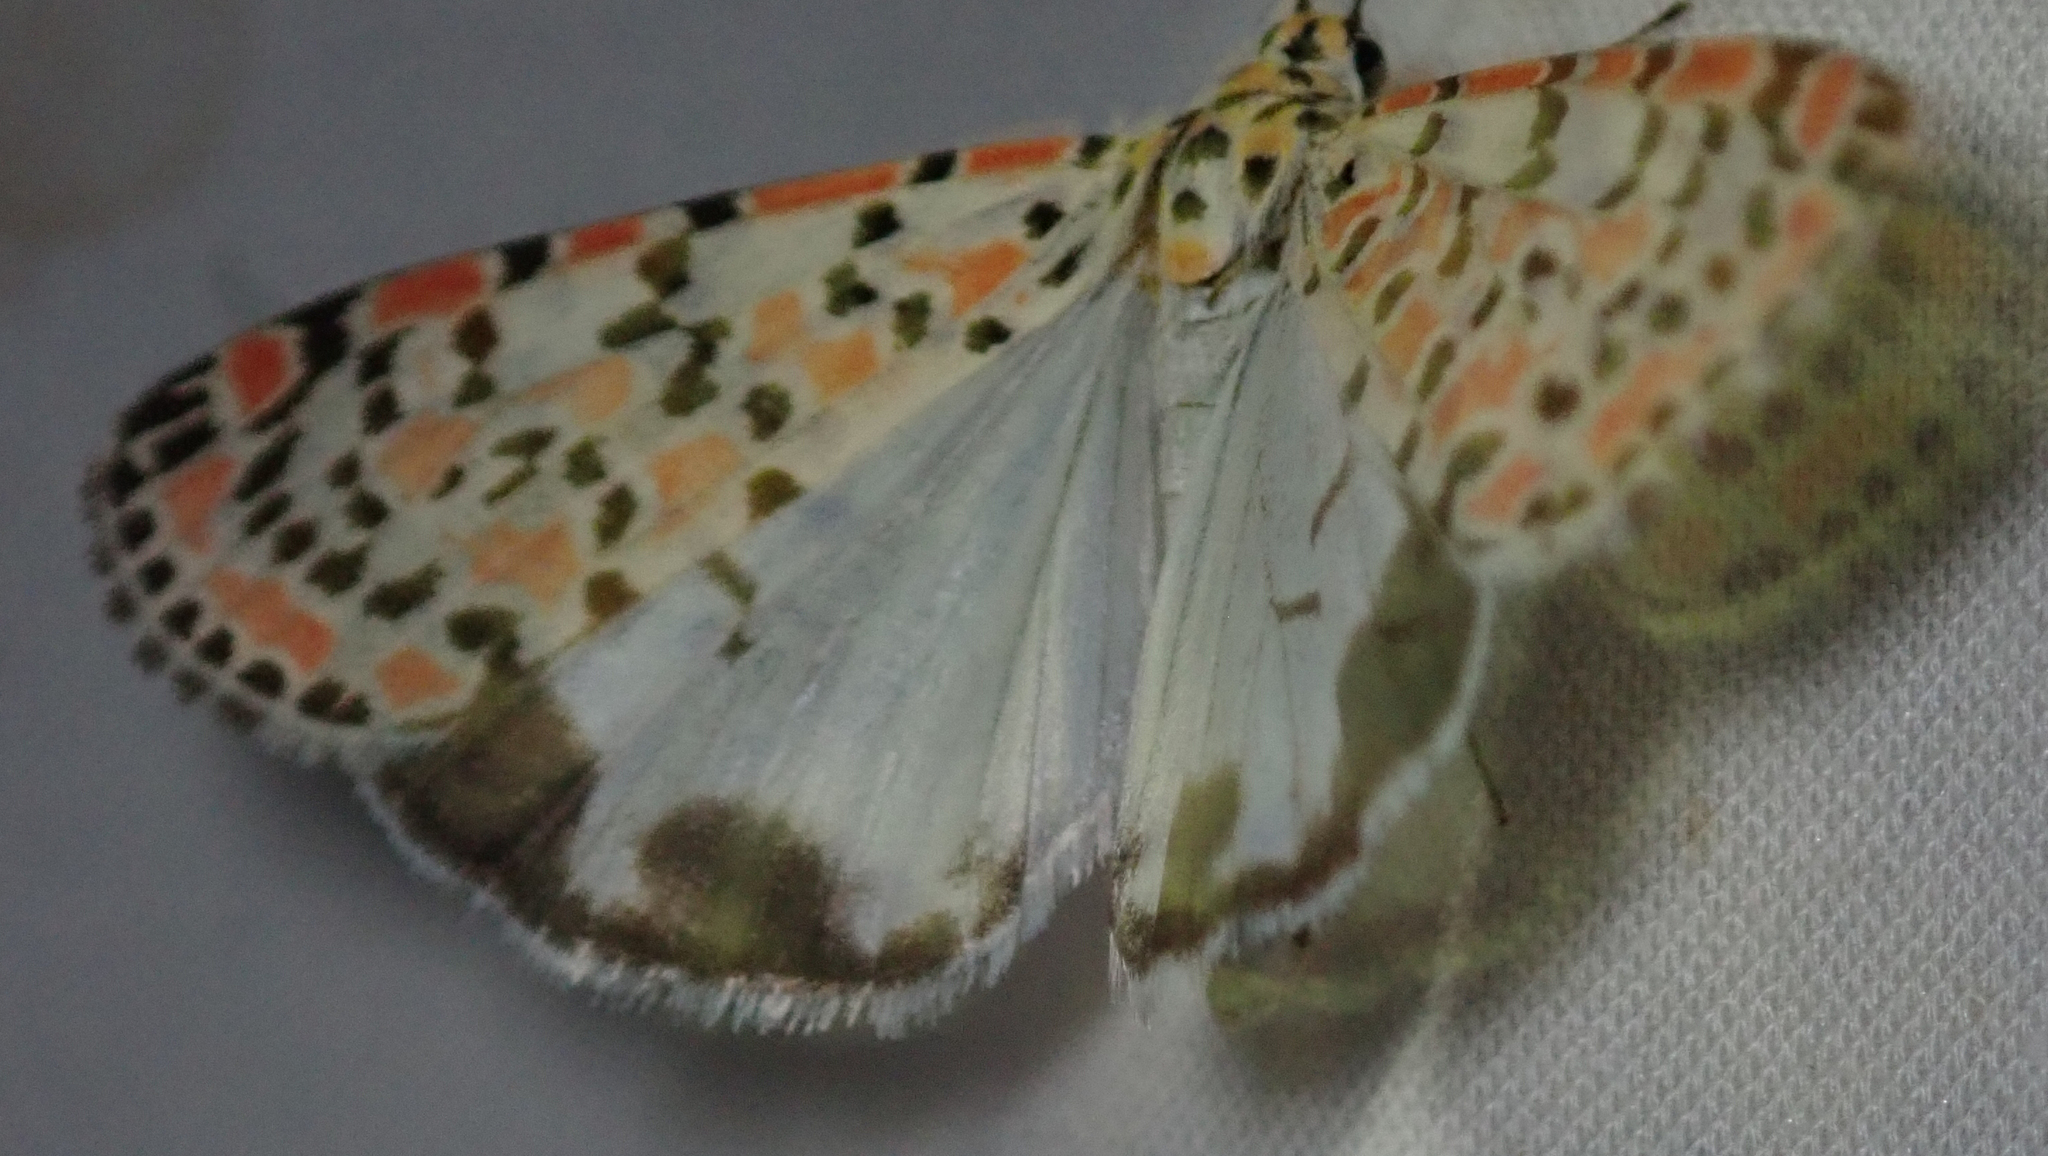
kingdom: Animalia
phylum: Arthropoda
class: Insecta
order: Lepidoptera
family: Erebidae
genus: Utetheisa
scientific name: Utetheisa pulchella
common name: Crimson speckled
